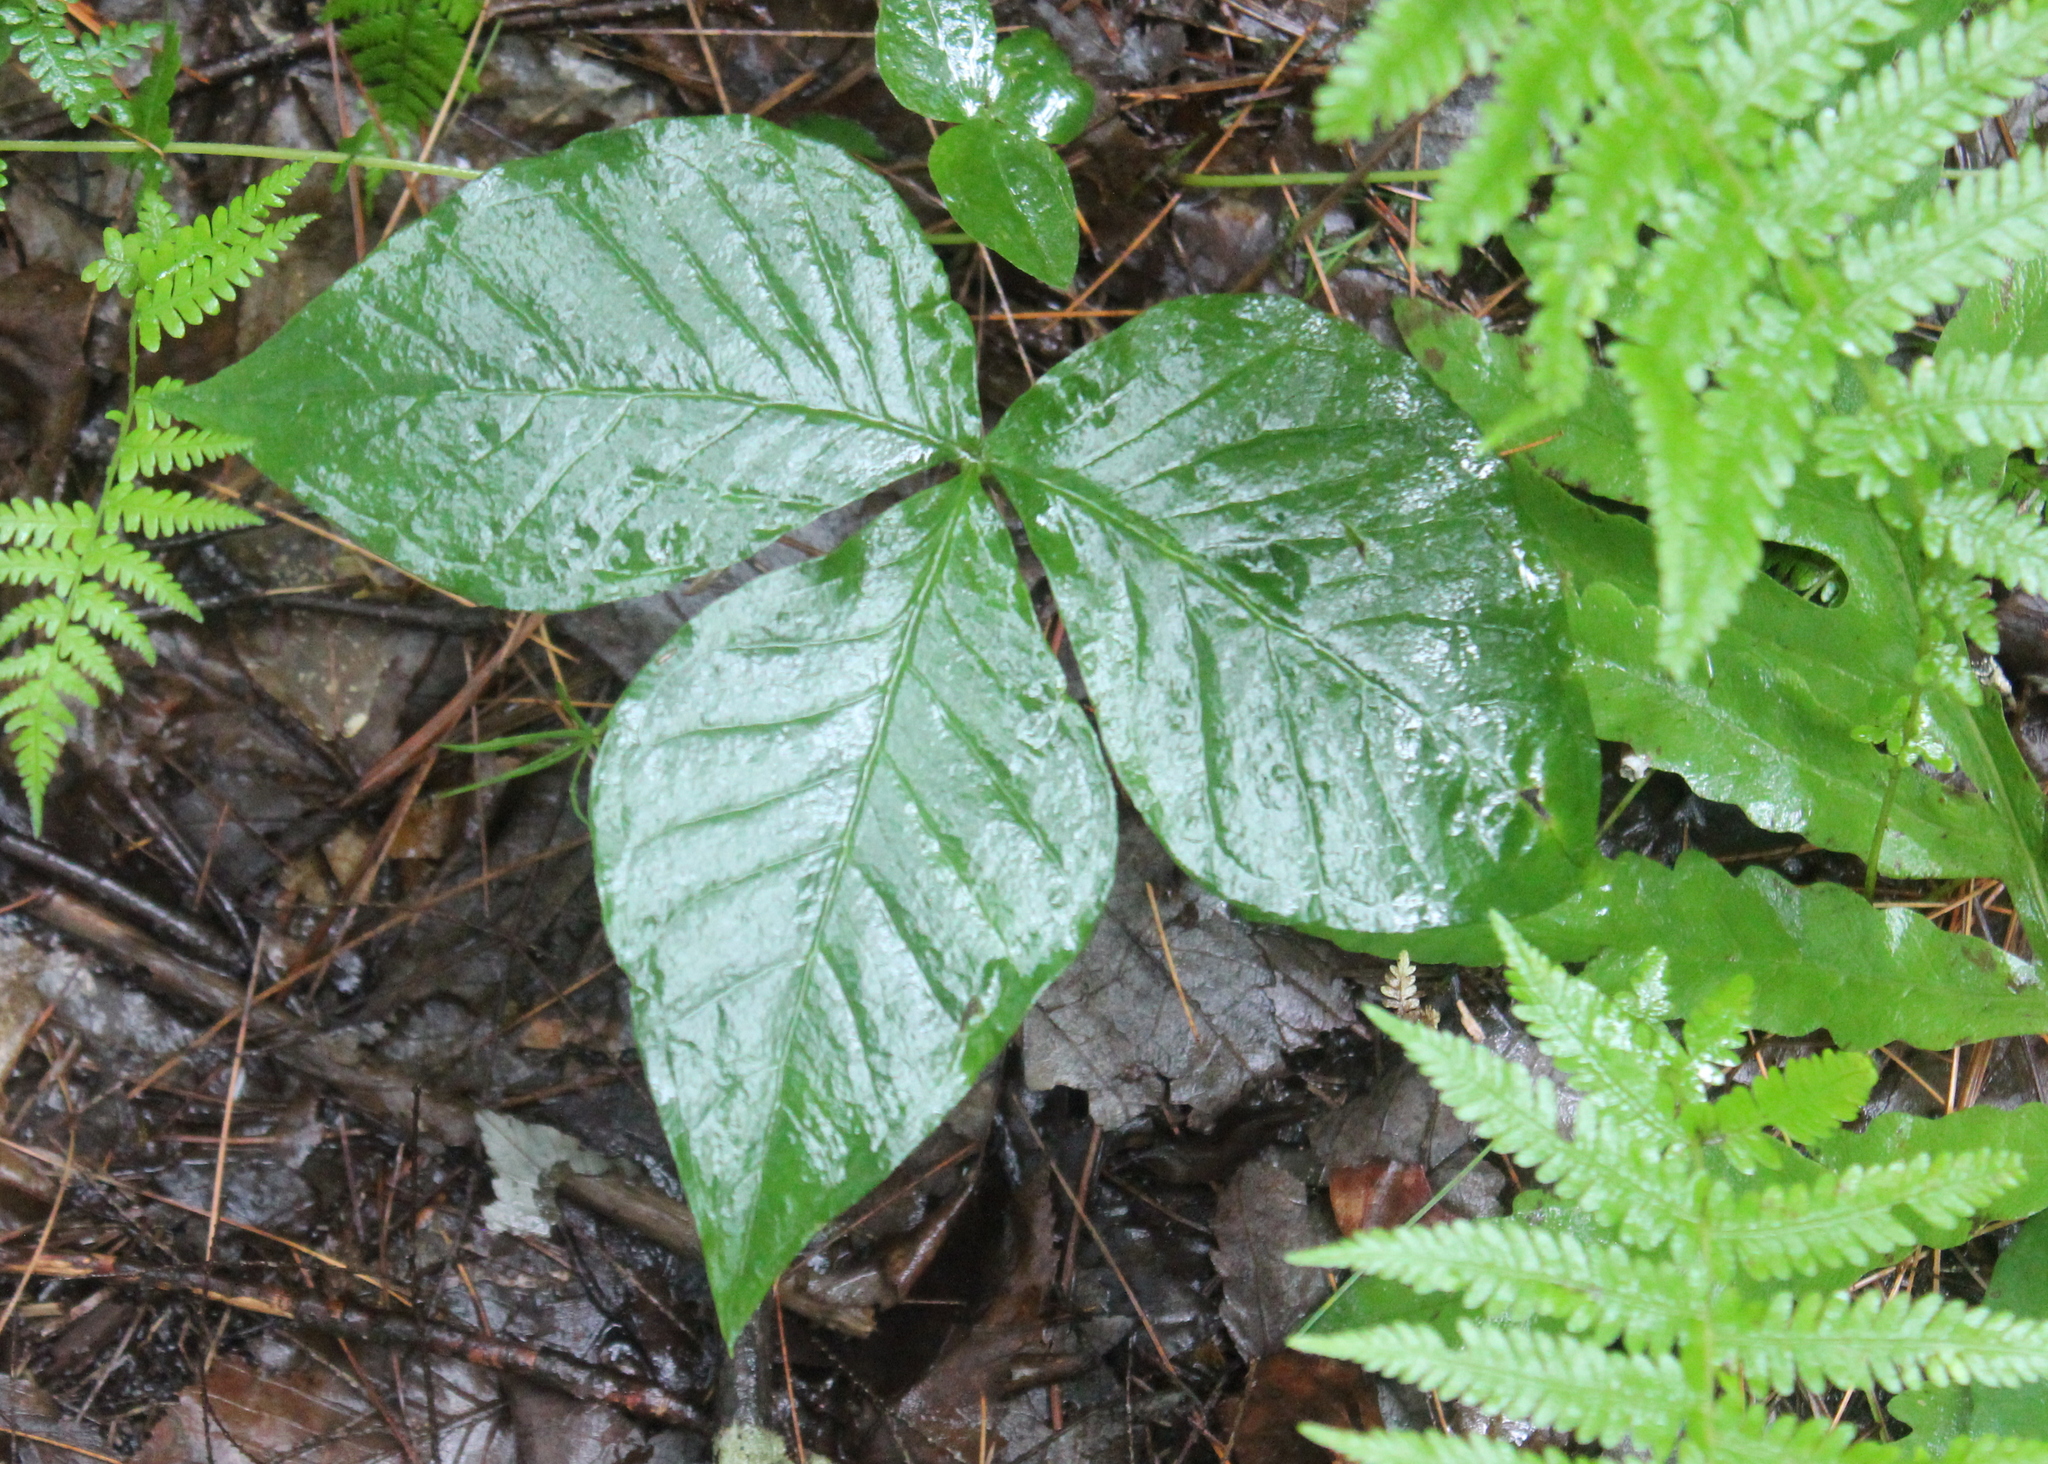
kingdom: Plantae
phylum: Tracheophyta
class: Liliopsida
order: Alismatales
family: Araceae
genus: Arisaema
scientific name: Arisaema triphyllum
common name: Jack-in-the-pulpit
